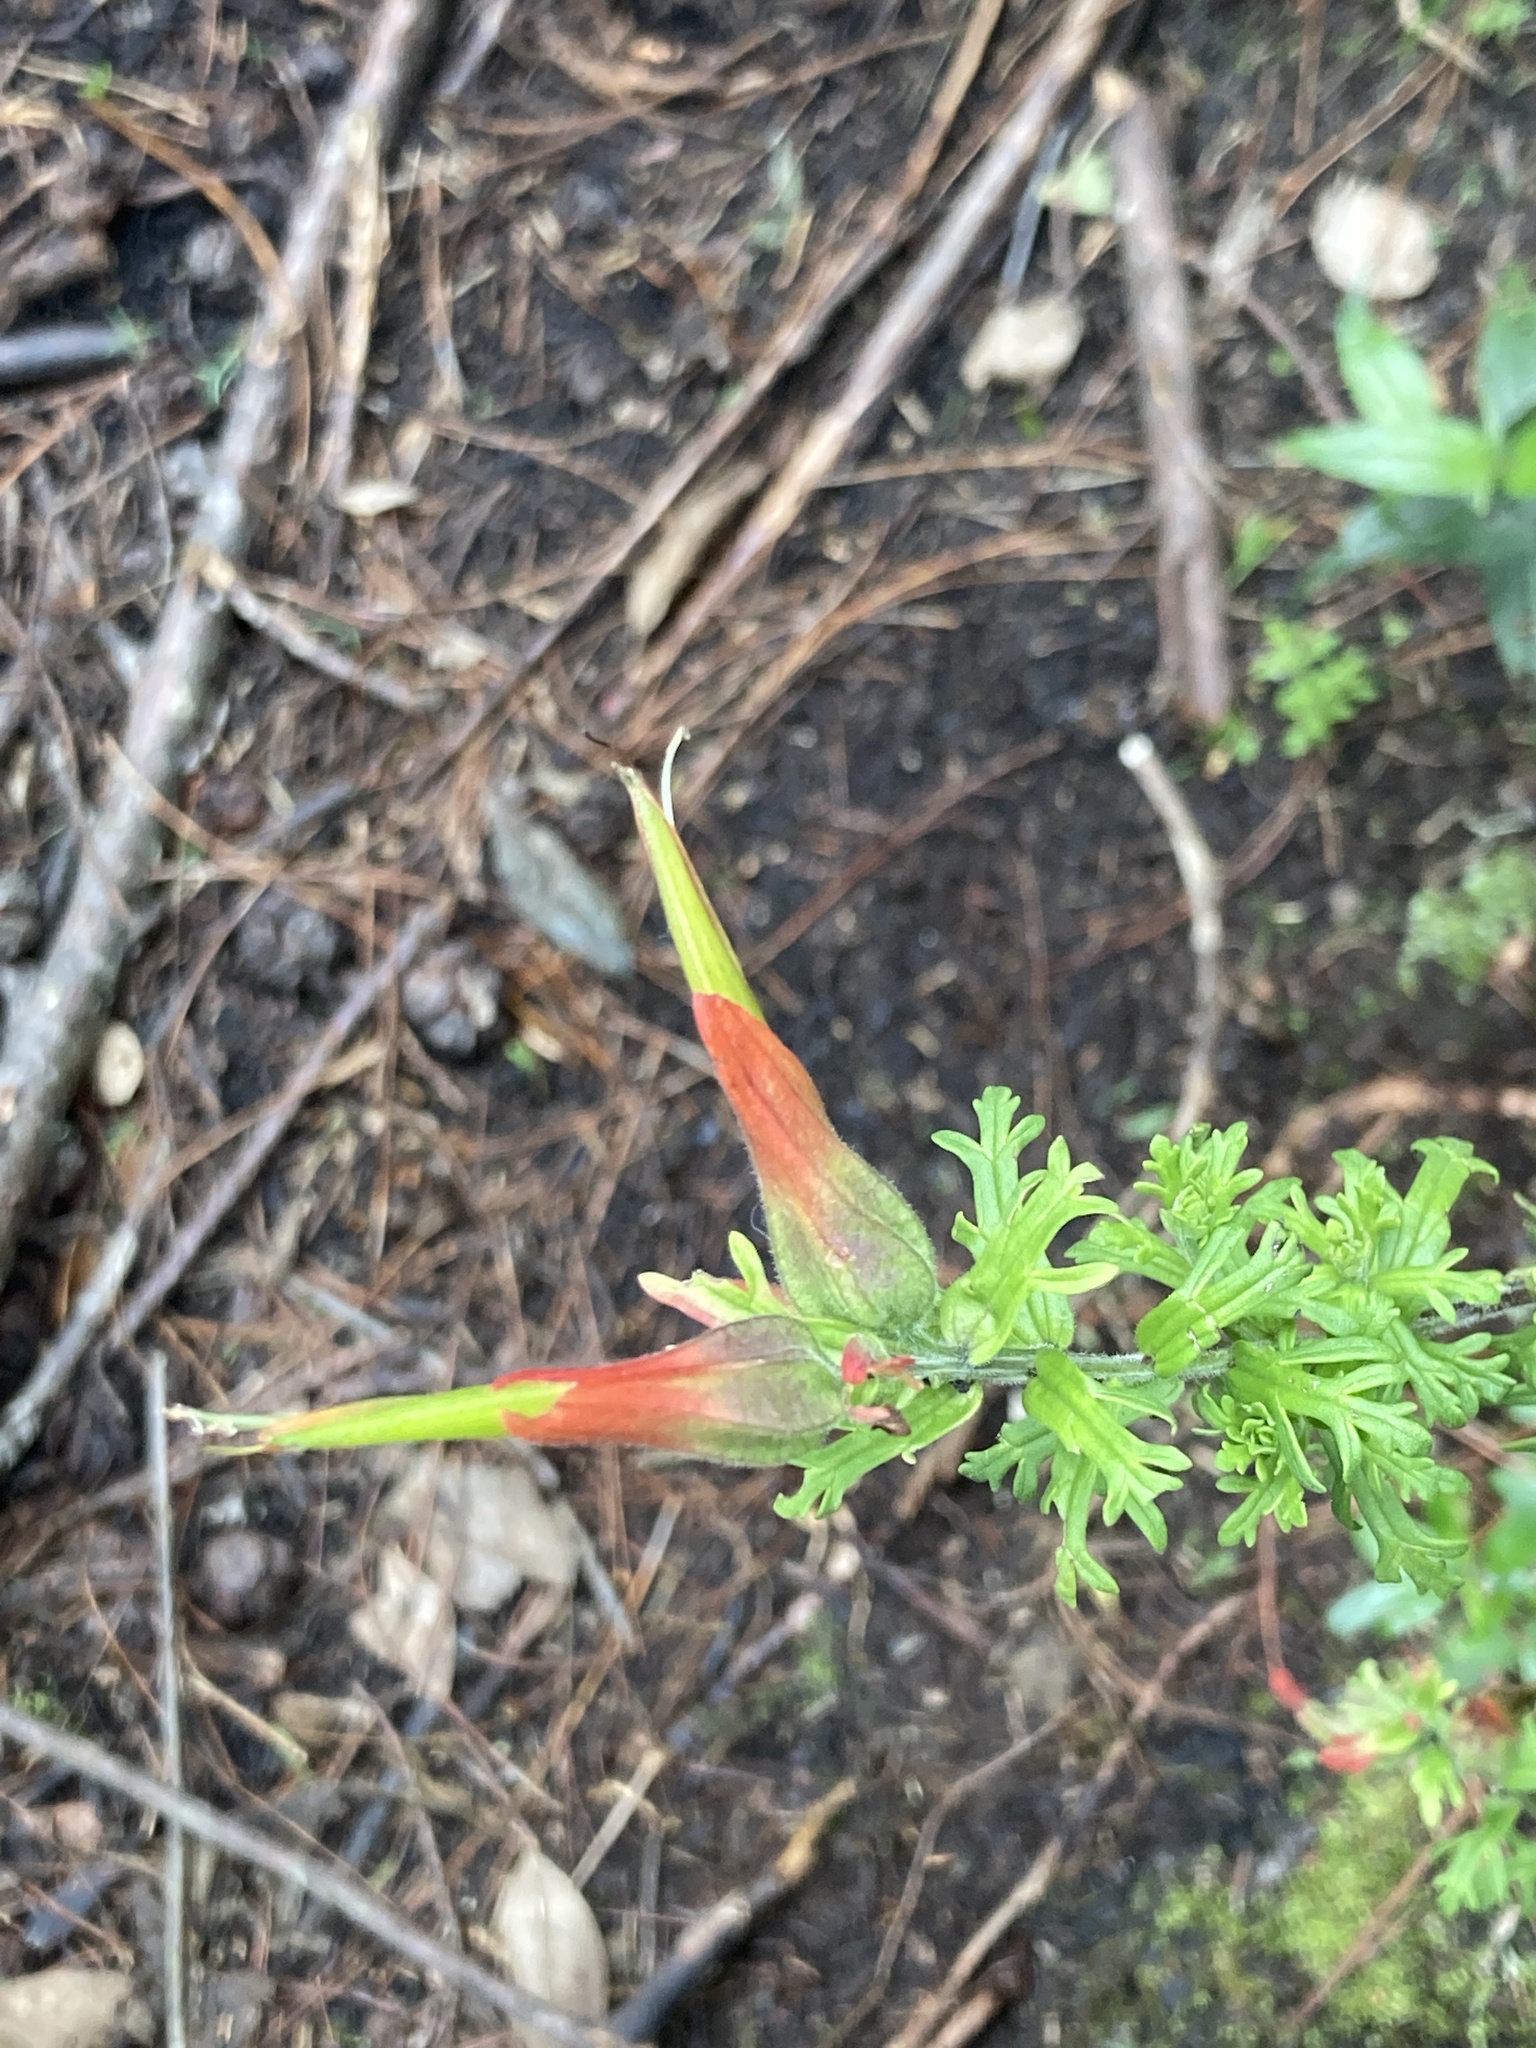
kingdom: Plantae
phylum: Tracheophyta
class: Magnoliopsida
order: Lamiales
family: Orobanchaceae
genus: Castilleja
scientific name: Castilleja fissifolia
